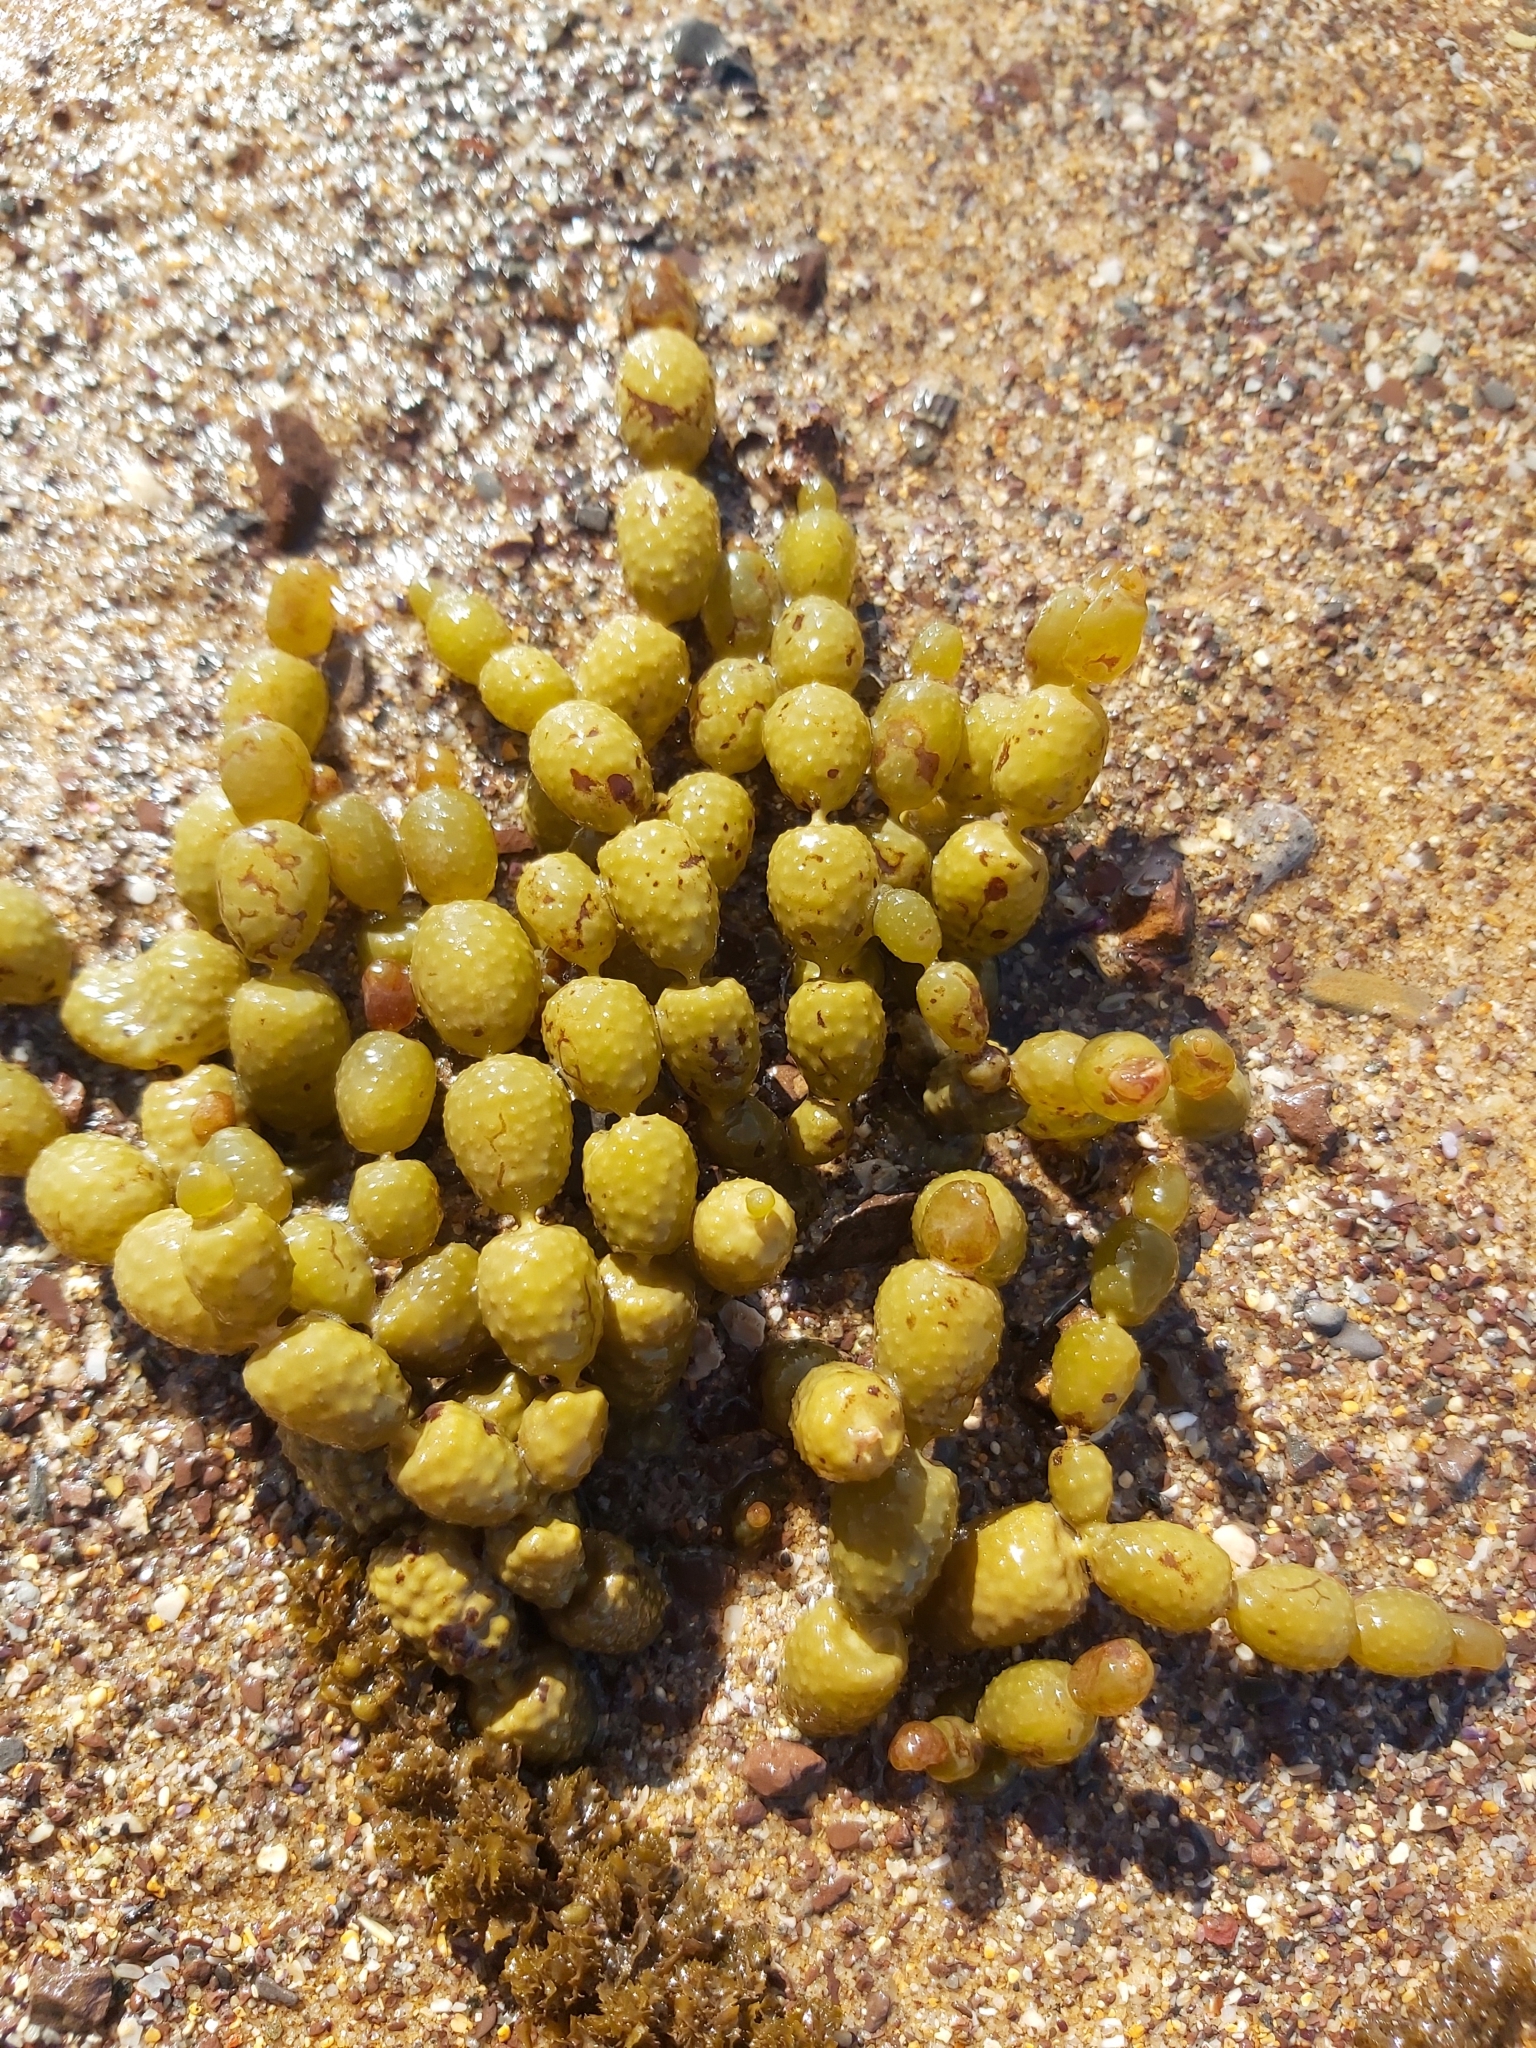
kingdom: Chromista
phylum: Ochrophyta
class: Phaeophyceae
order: Fucales
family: Hormosiraceae
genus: Hormosira
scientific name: Hormosira banksii
